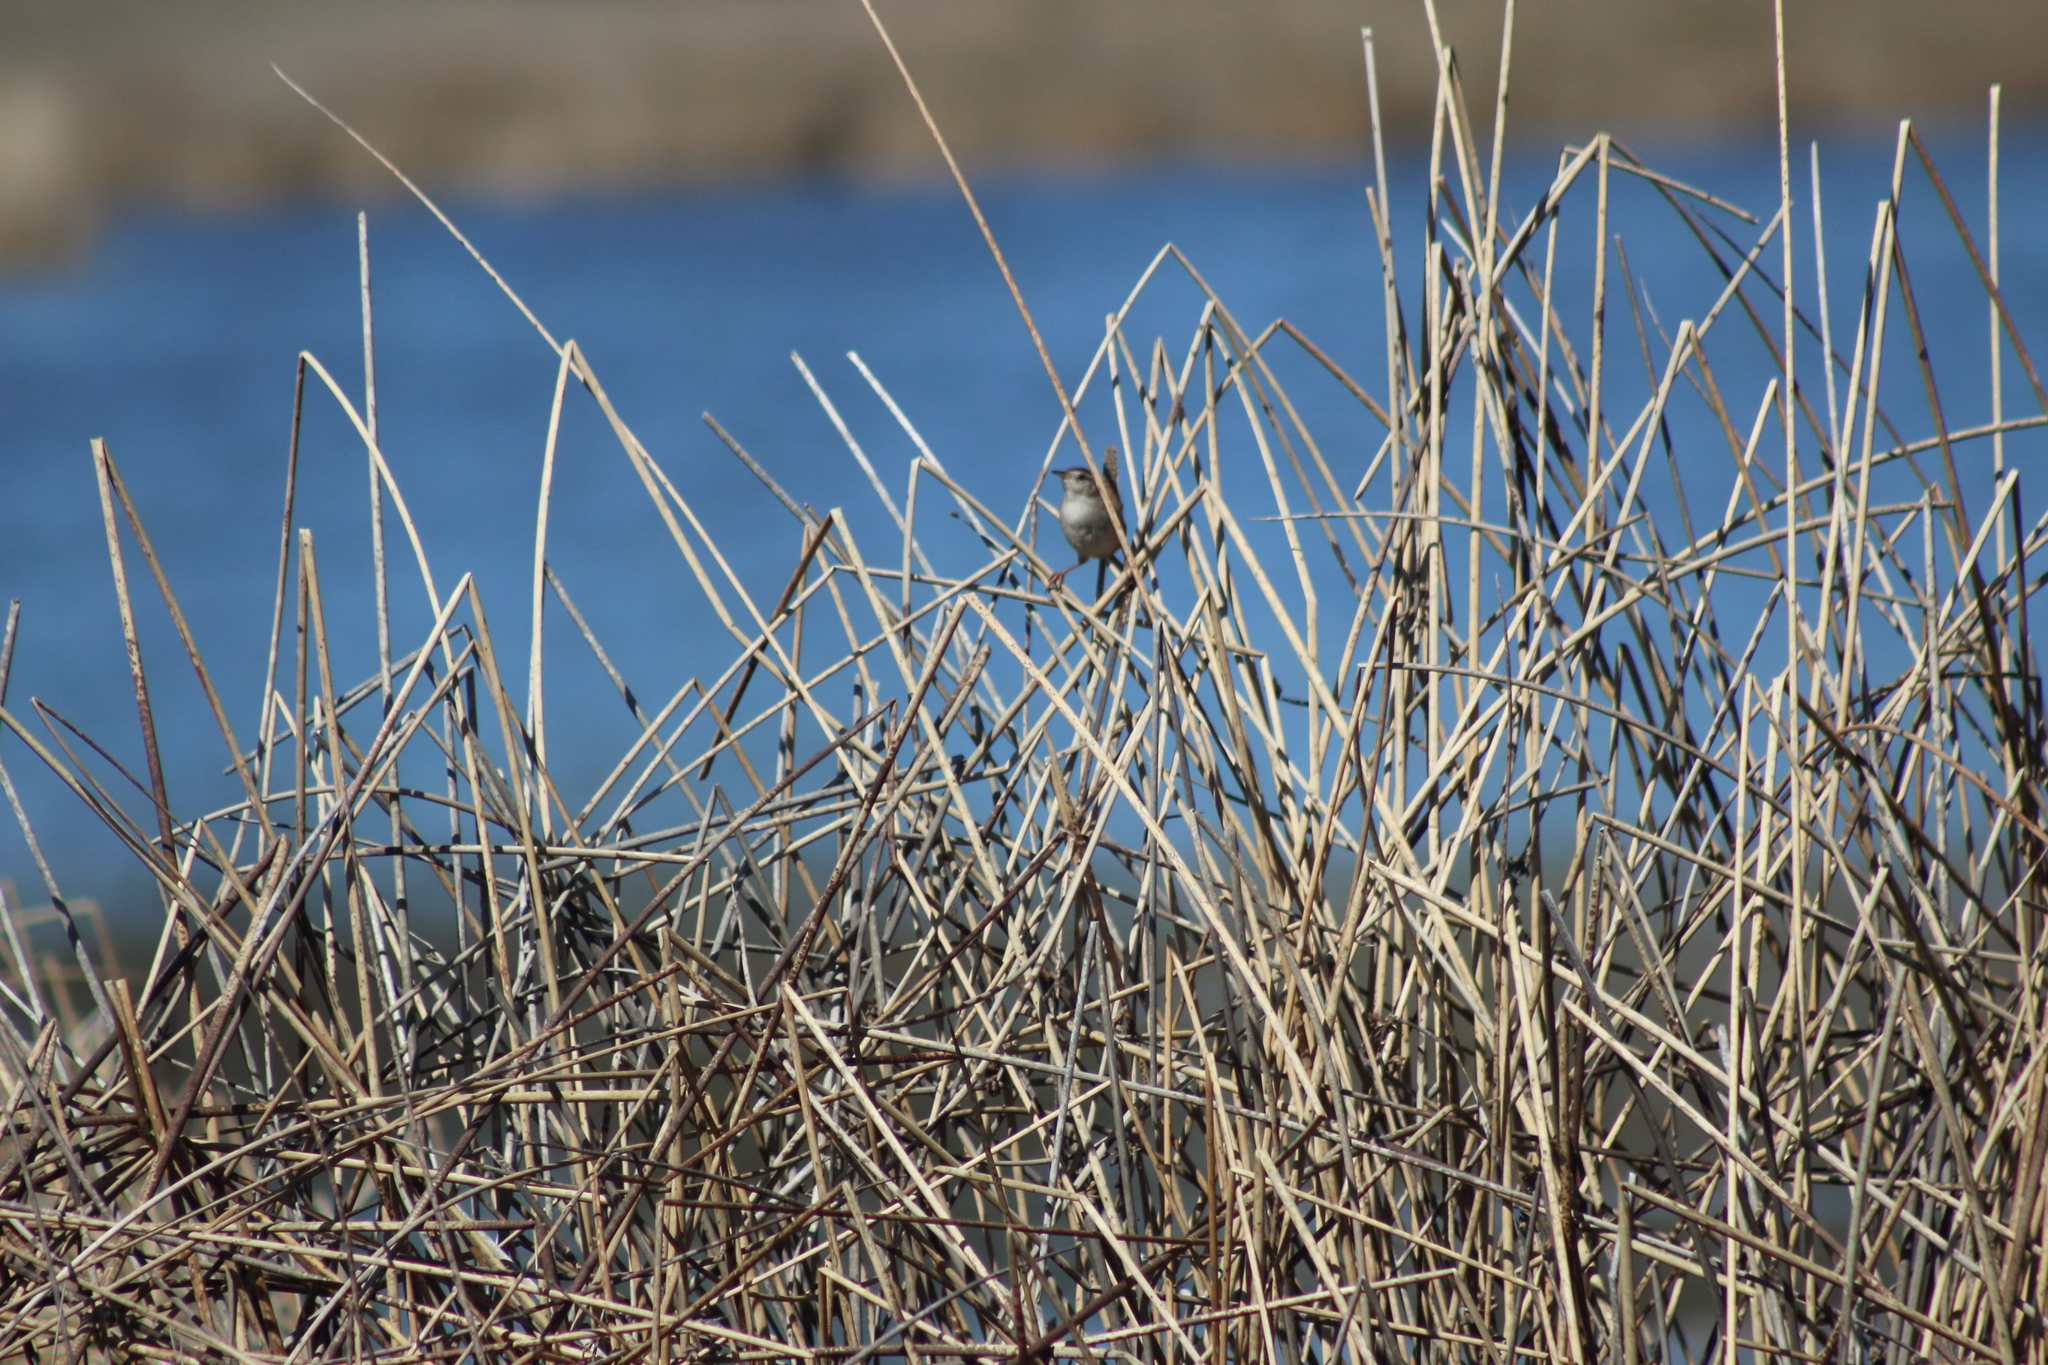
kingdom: Animalia
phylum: Chordata
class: Aves
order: Passeriformes
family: Troglodytidae
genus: Cistothorus
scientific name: Cistothorus palustris
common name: Marsh wren
